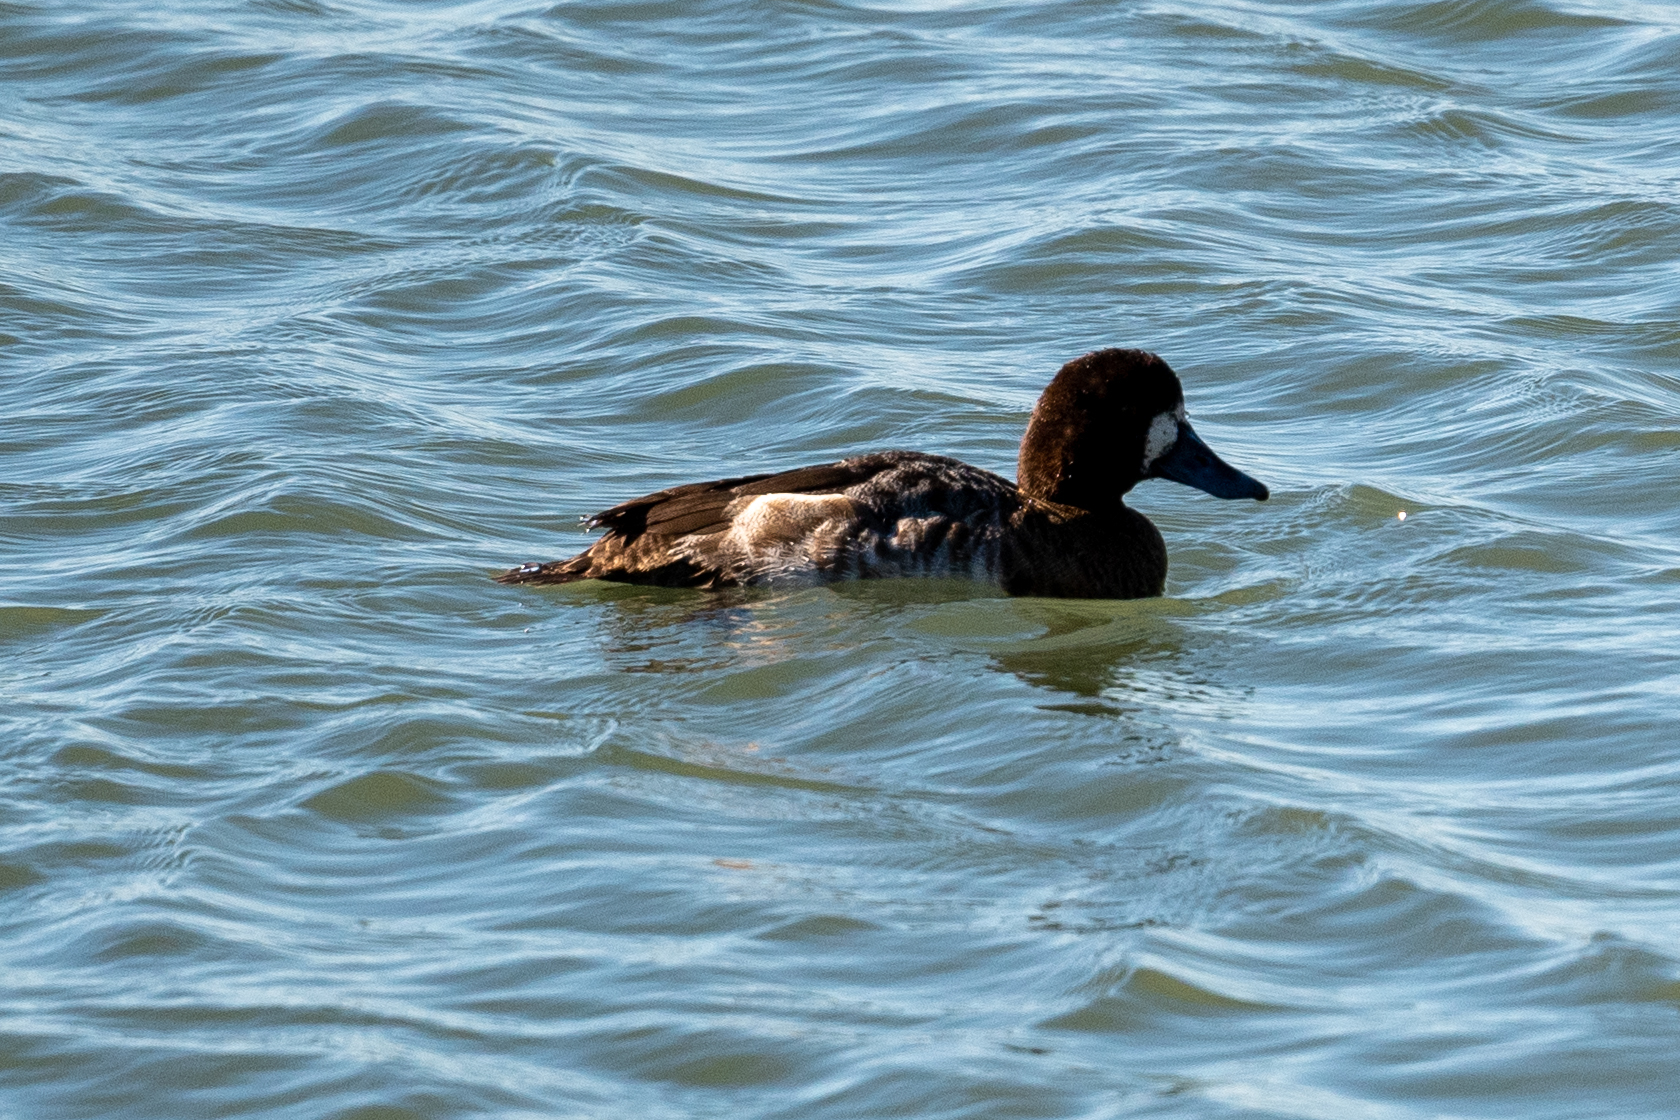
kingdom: Animalia
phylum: Chordata
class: Aves
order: Anseriformes
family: Anatidae
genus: Aythya
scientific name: Aythya marila
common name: Greater scaup
